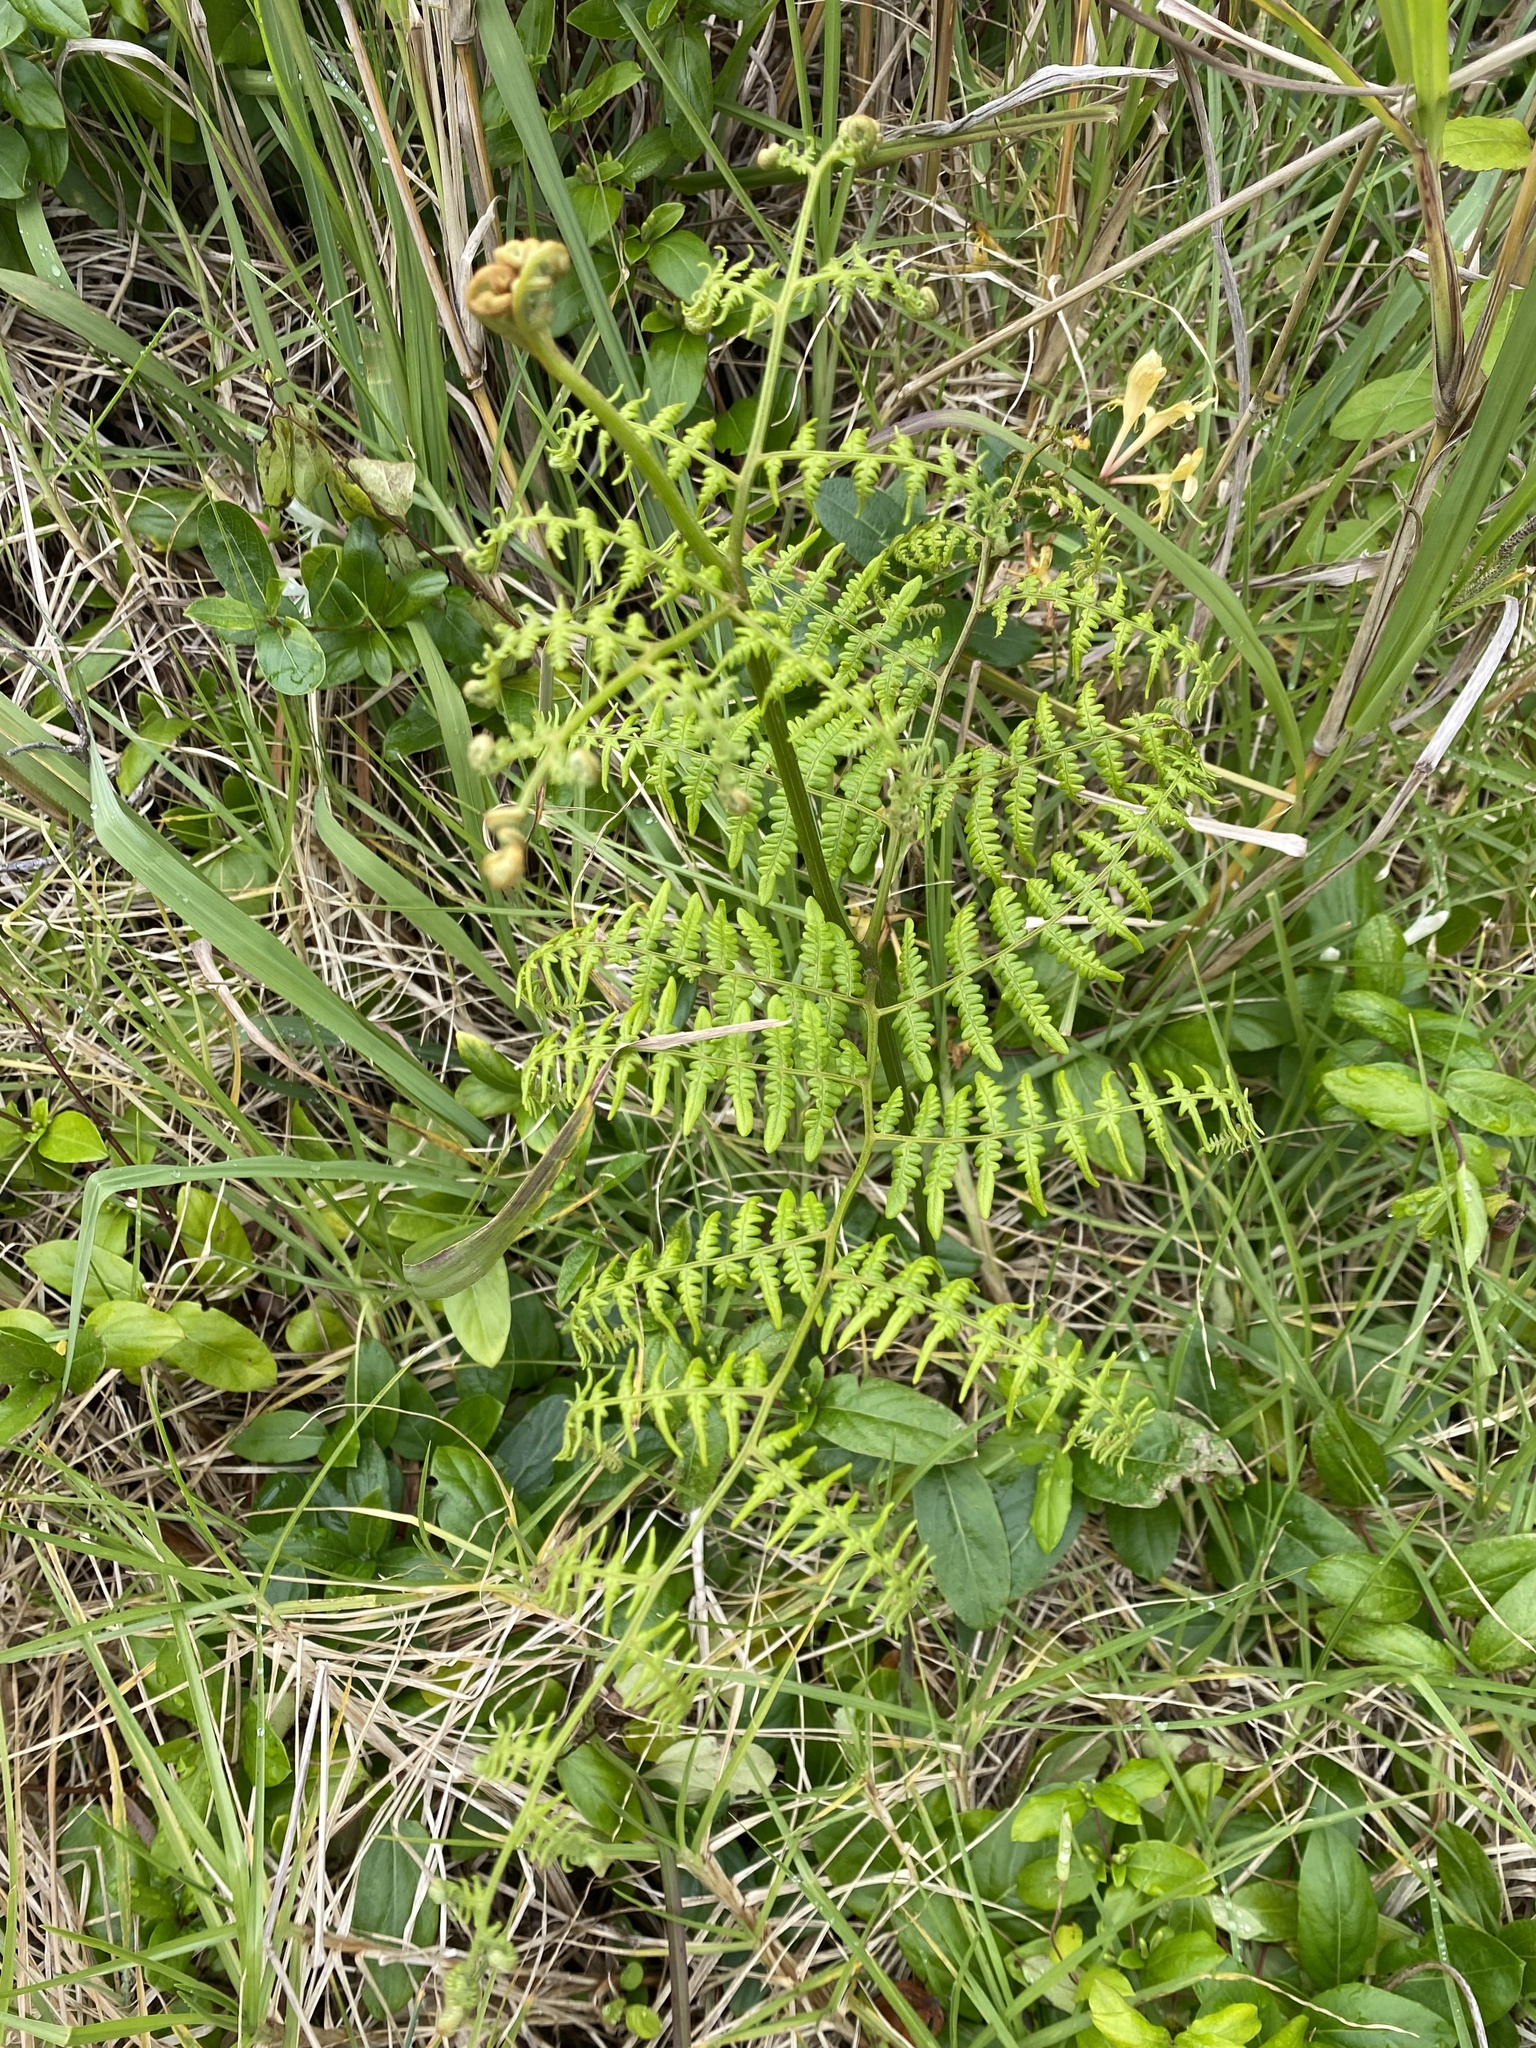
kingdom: Plantae
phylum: Tracheophyta
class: Polypodiopsida
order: Polypodiales
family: Dennstaedtiaceae
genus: Pteridium
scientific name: Pteridium aquilinum
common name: Bracken
